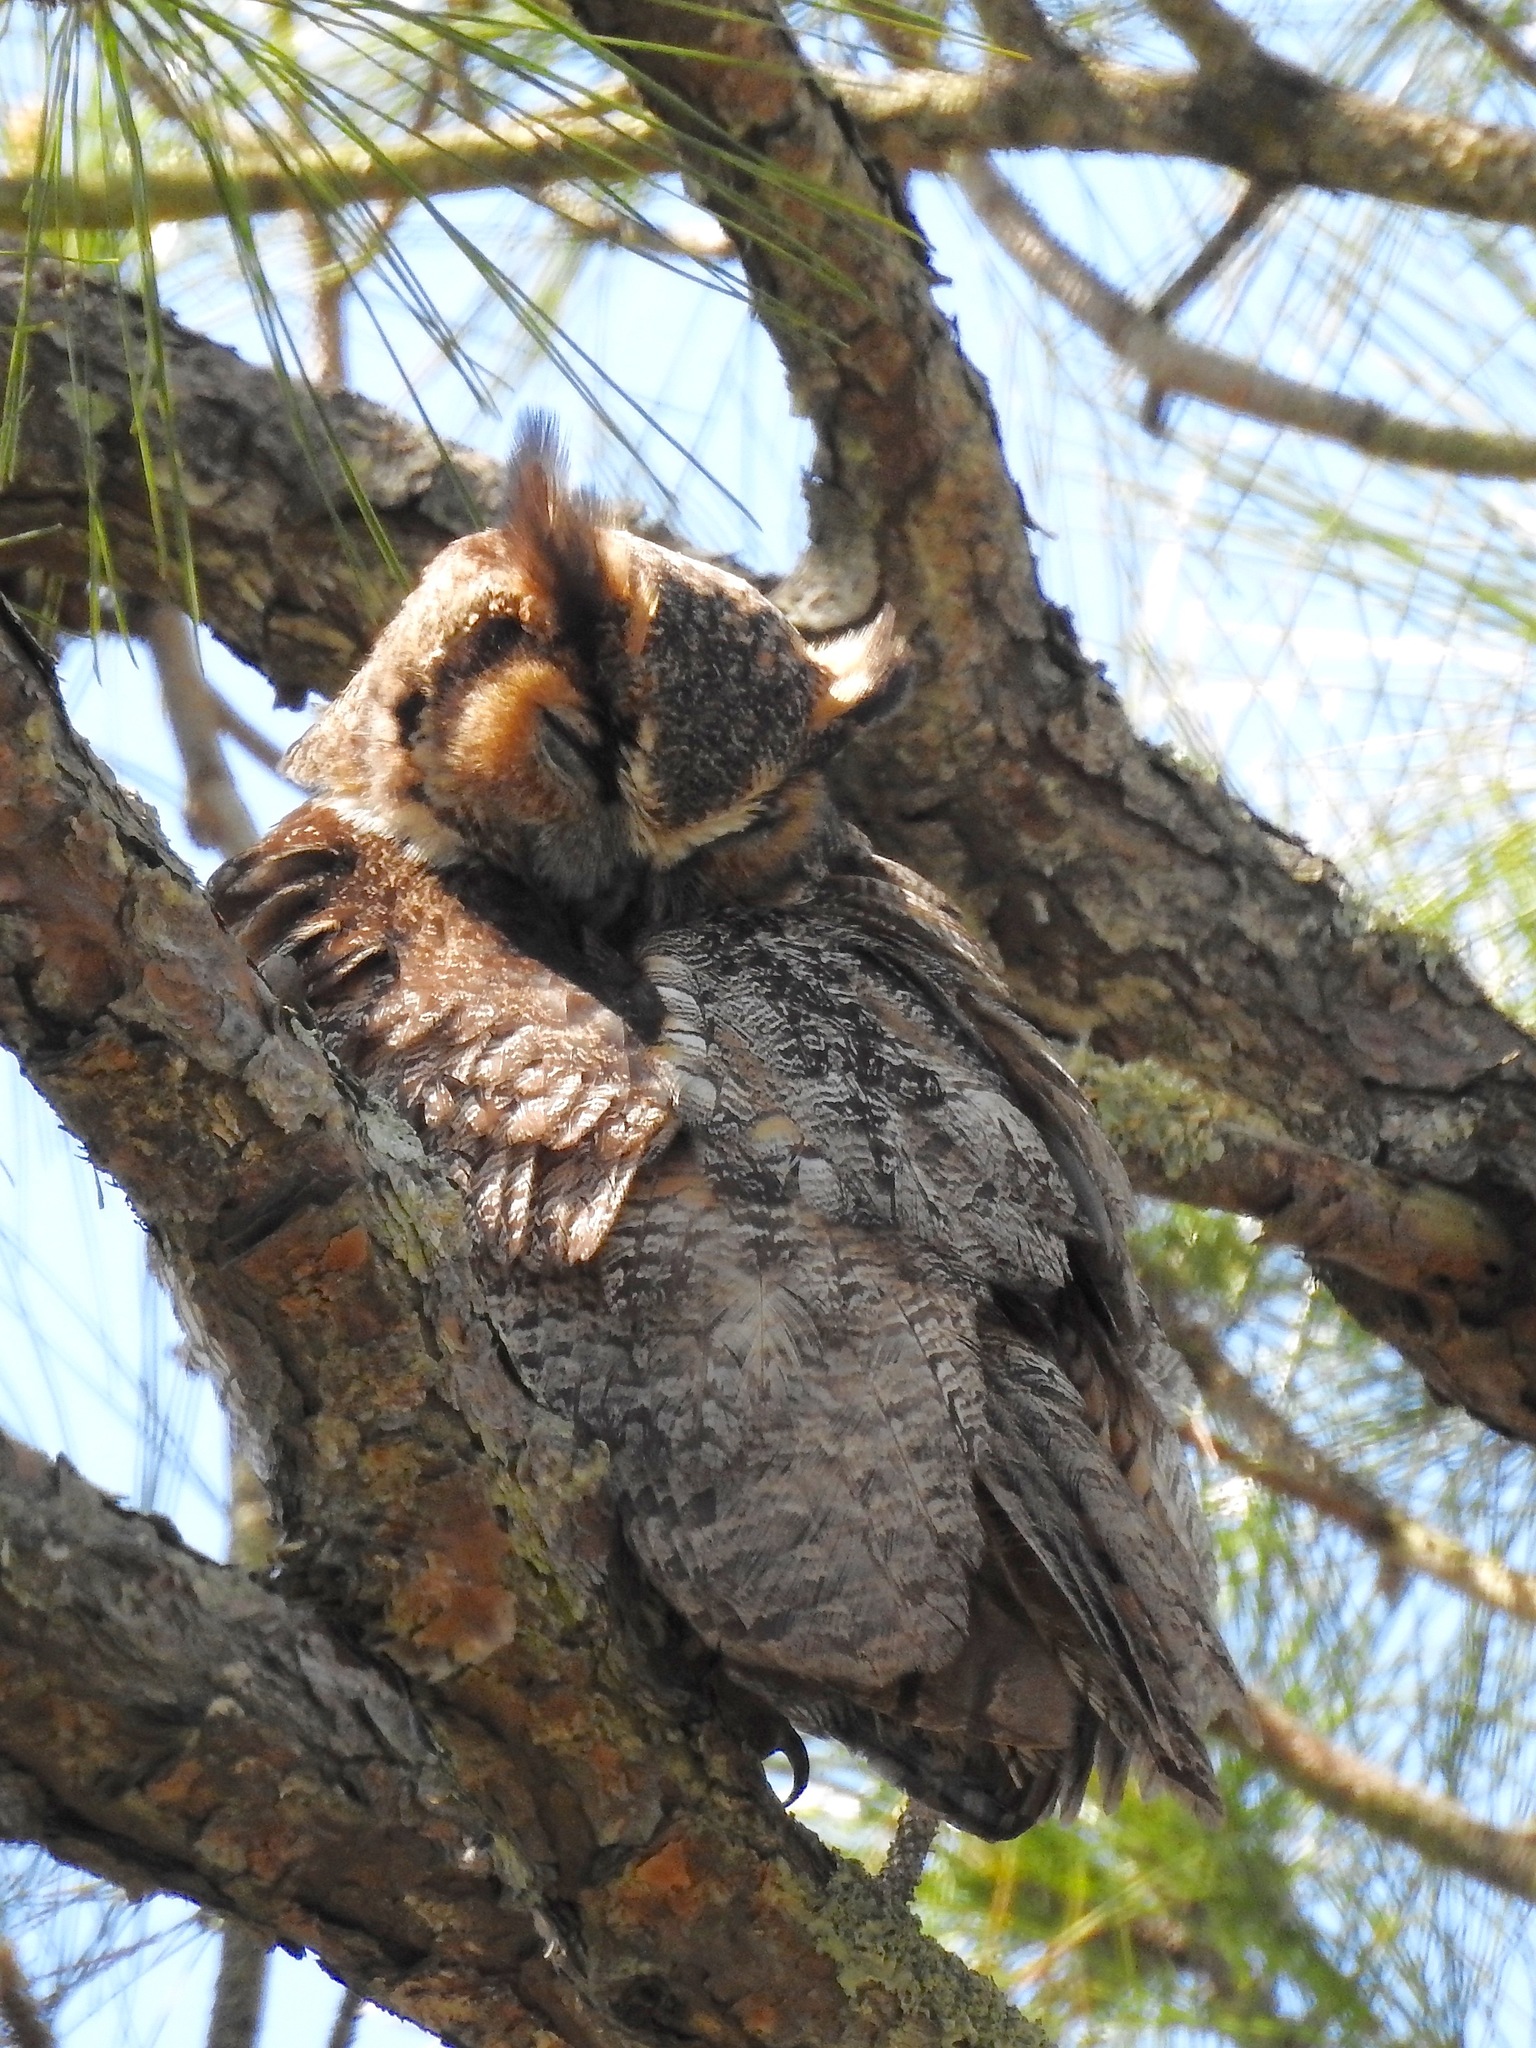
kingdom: Animalia
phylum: Chordata
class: Aves
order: Strigiformes
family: Strigidae
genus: Bubo
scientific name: Bubo virginianus
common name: Great horned owl
